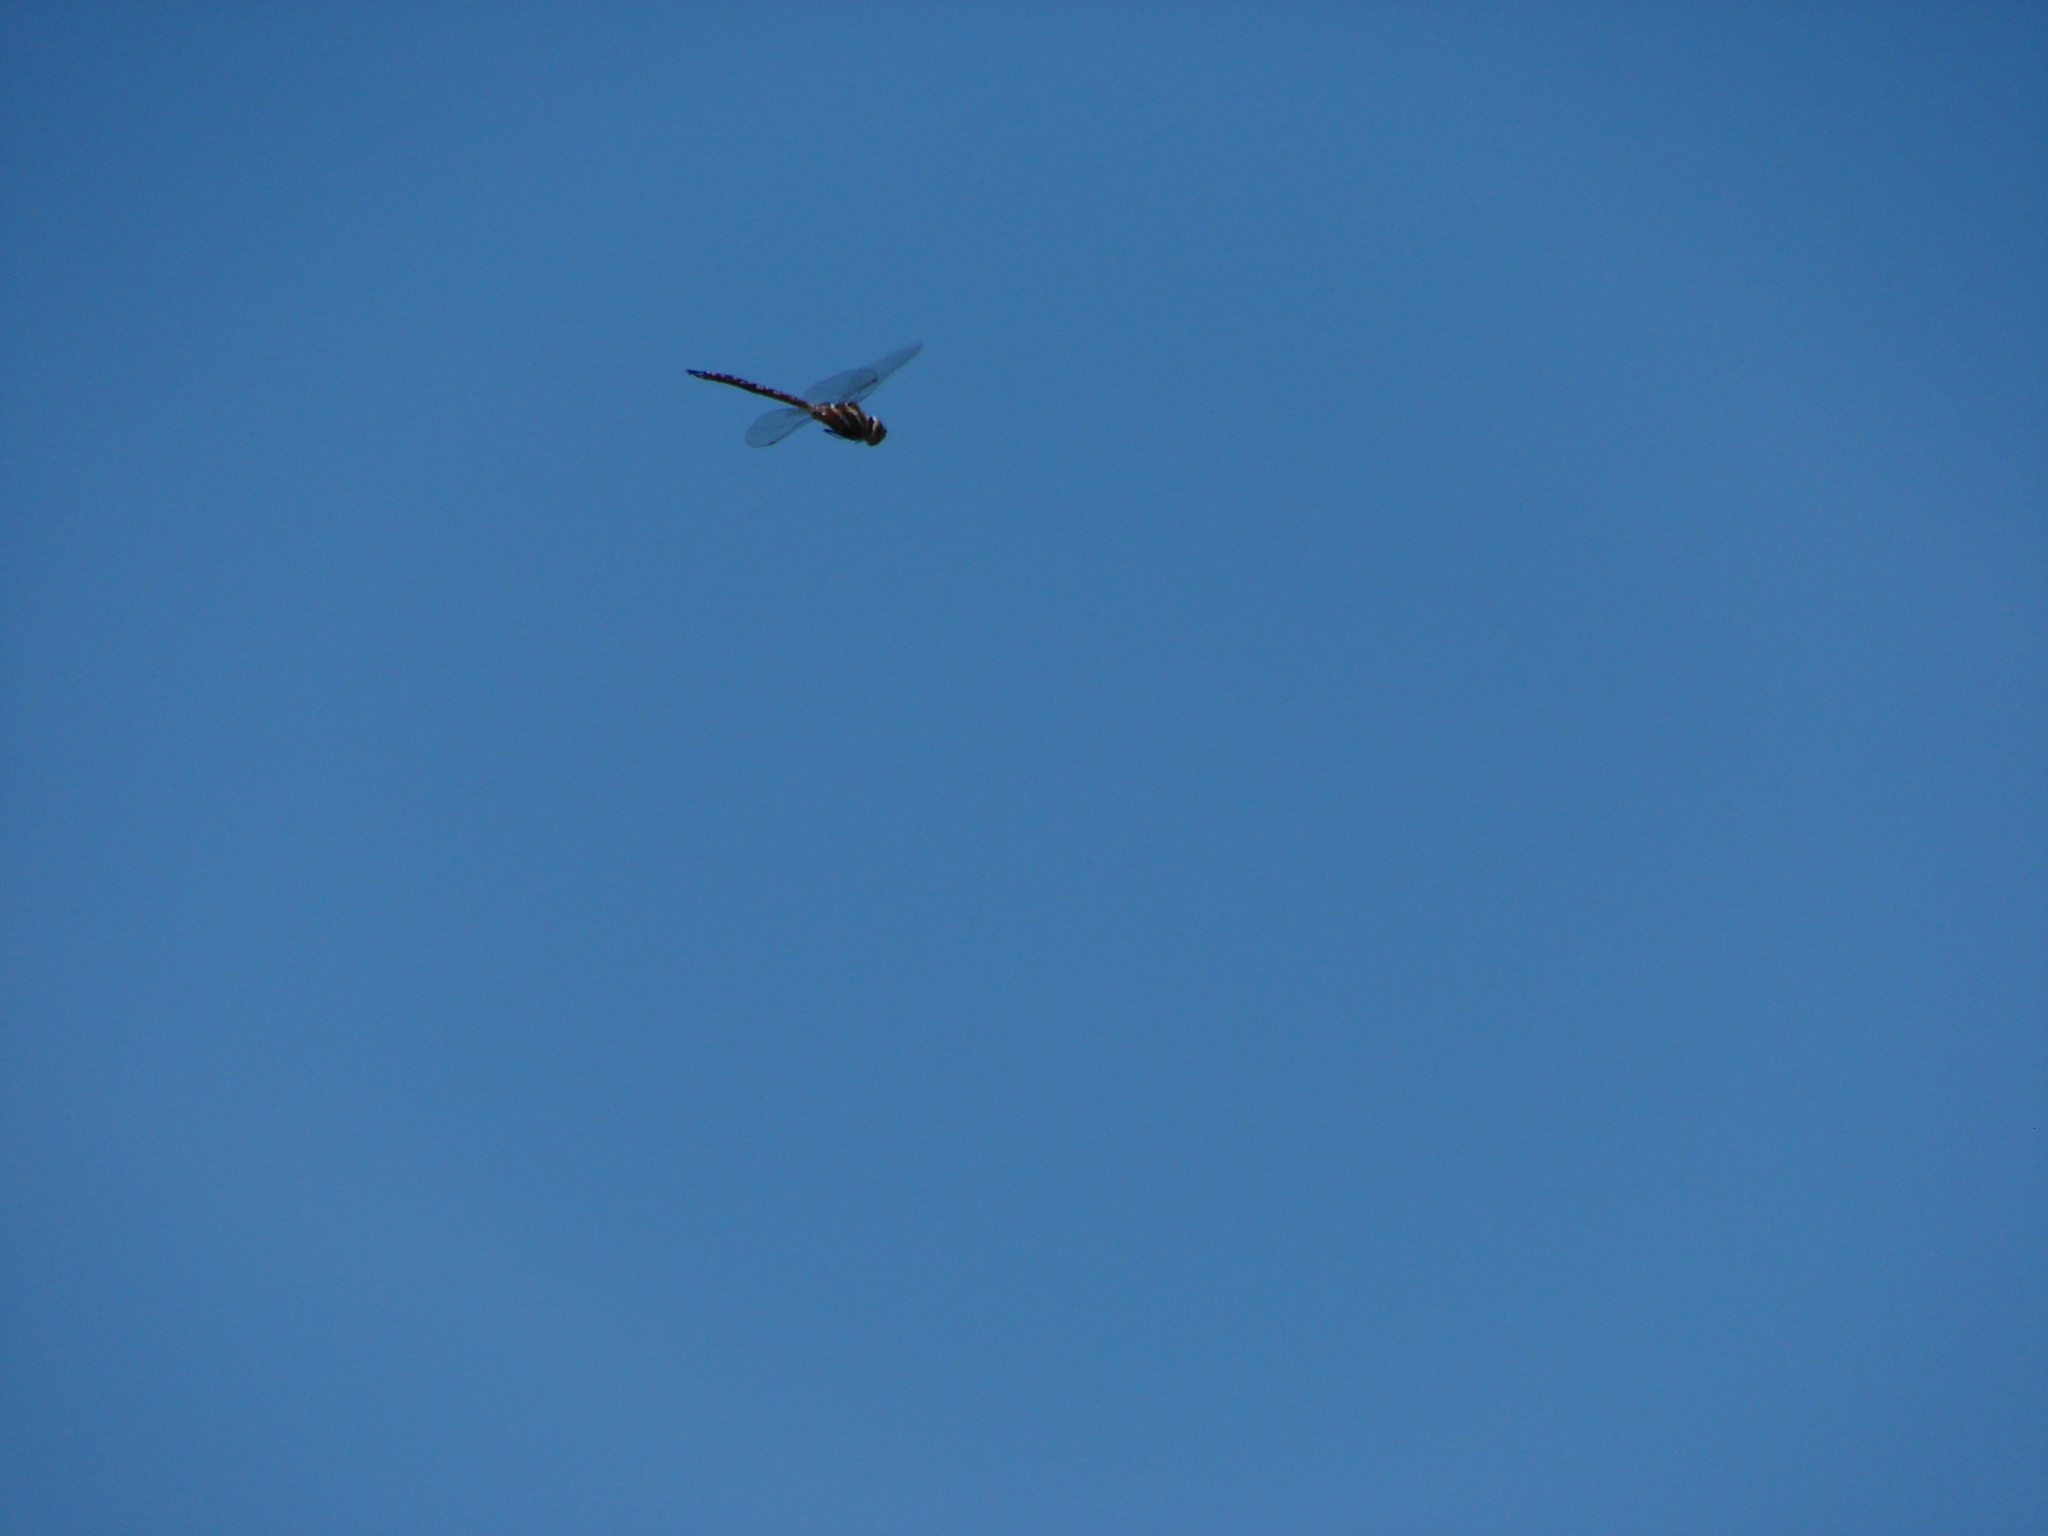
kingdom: Animalia
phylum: Arthropoda
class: Insecta
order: Odonata
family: Aeshnidae
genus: Rhionaeschna
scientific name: Rhionaeschna multicolor
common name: Blue-eyed darner
